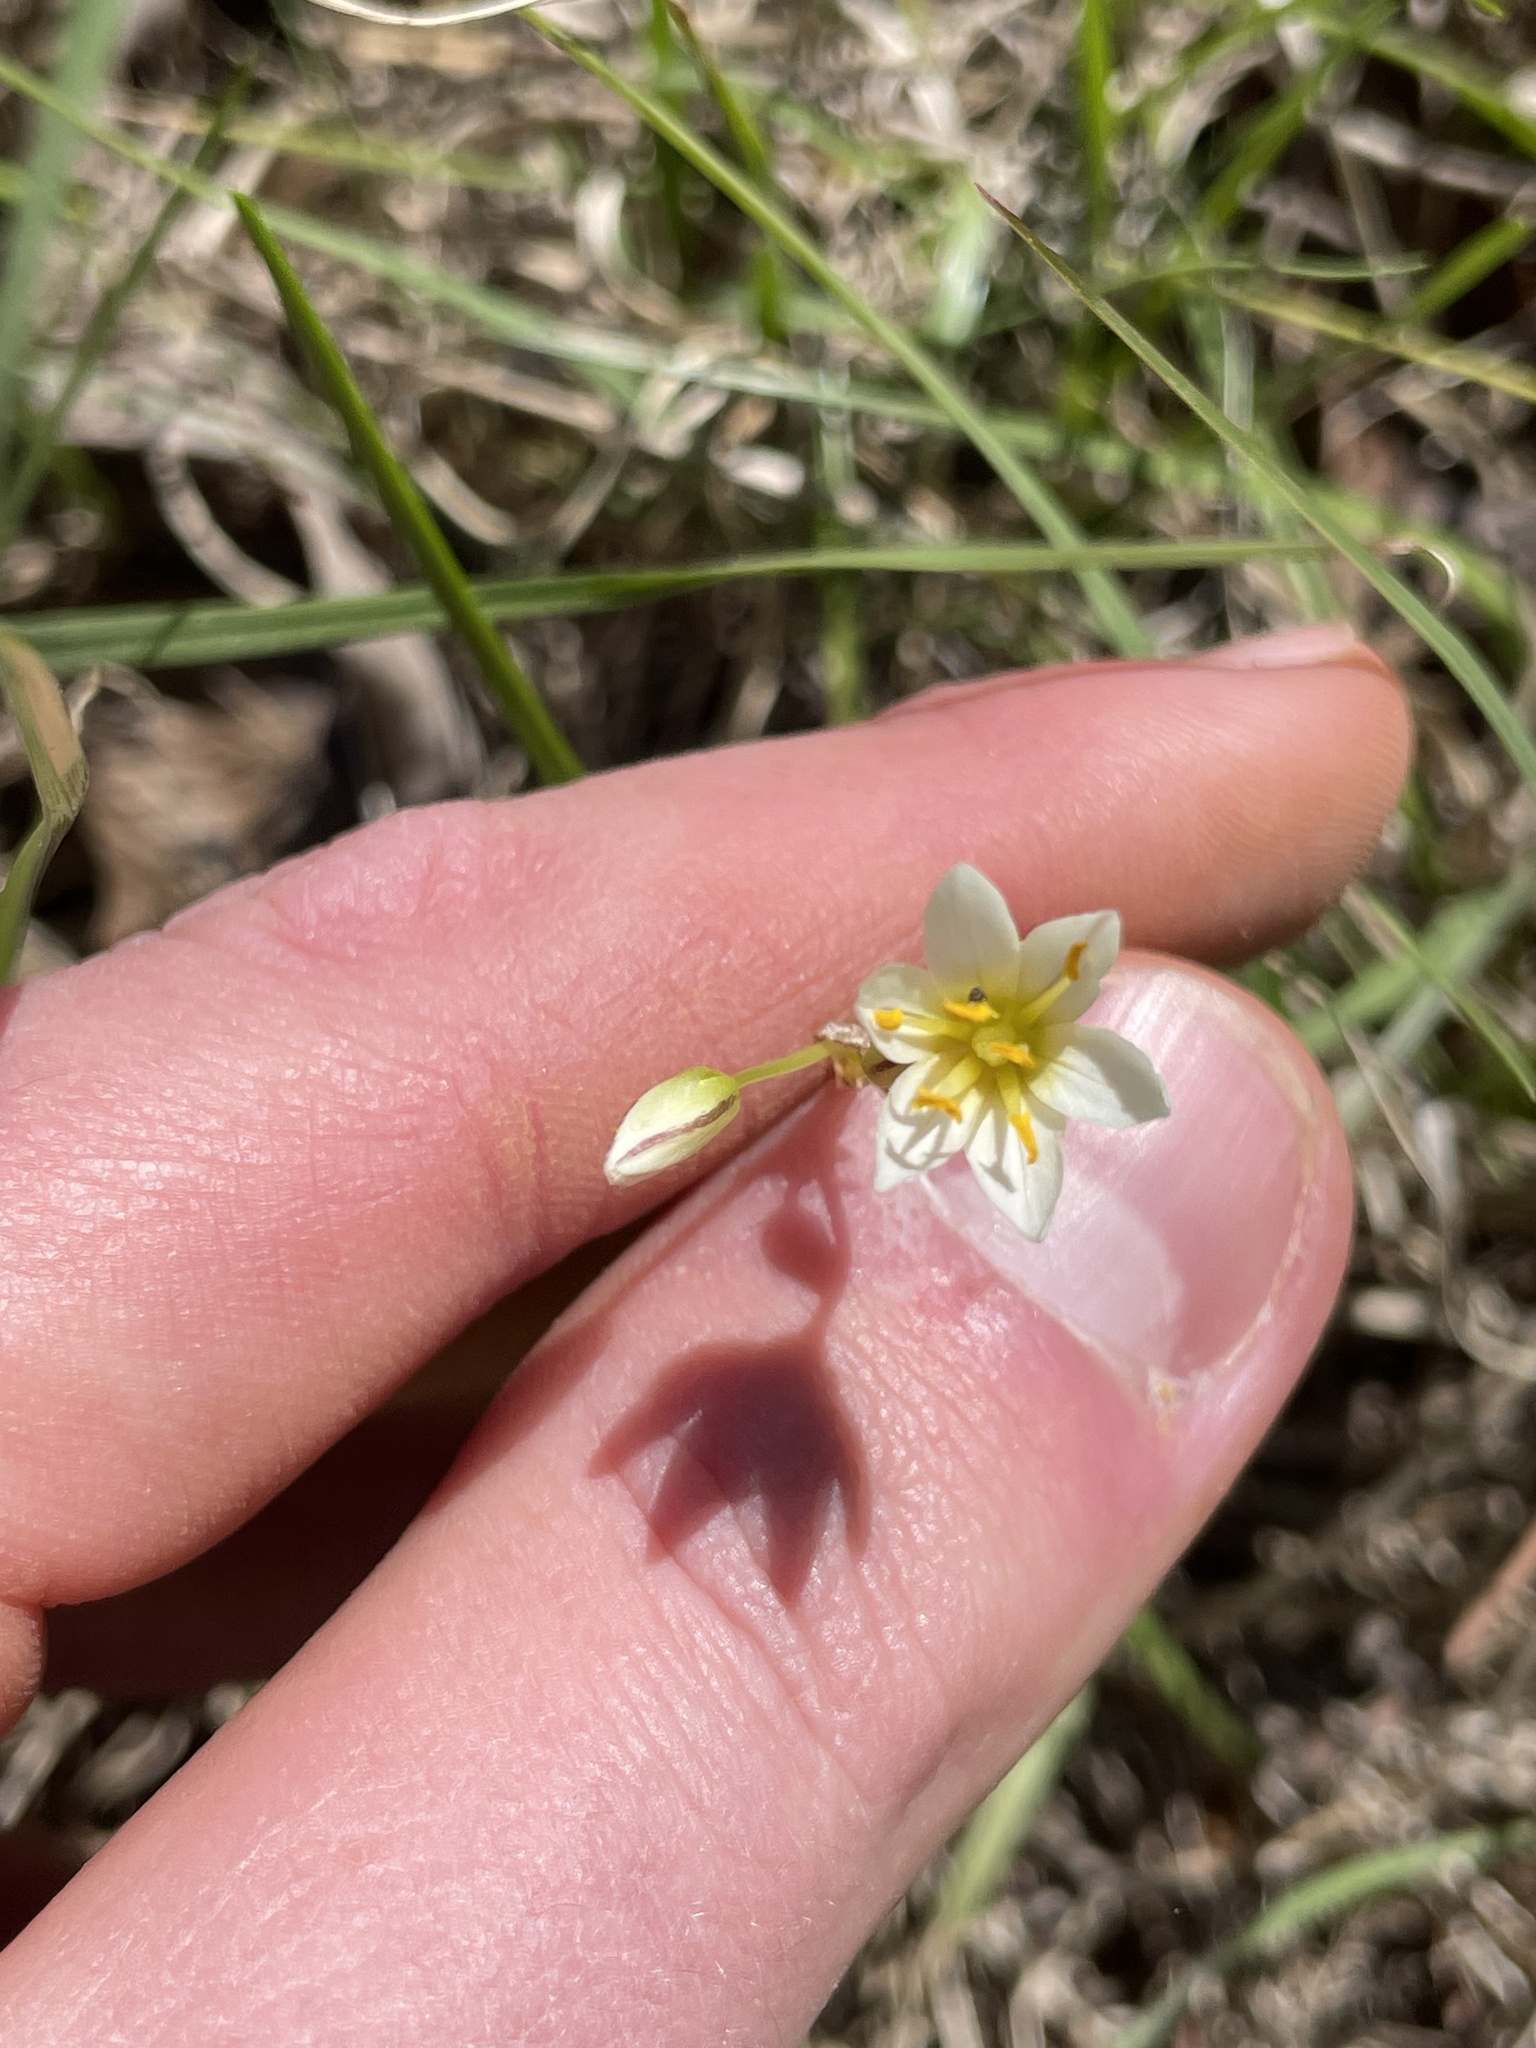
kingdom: Plantae
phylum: Tracheophyta
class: Liliopsida
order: Asparagales
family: Amaryllidaceae
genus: Nothoscordum
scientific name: Nothoscordum bivalve
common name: Crow-poison
